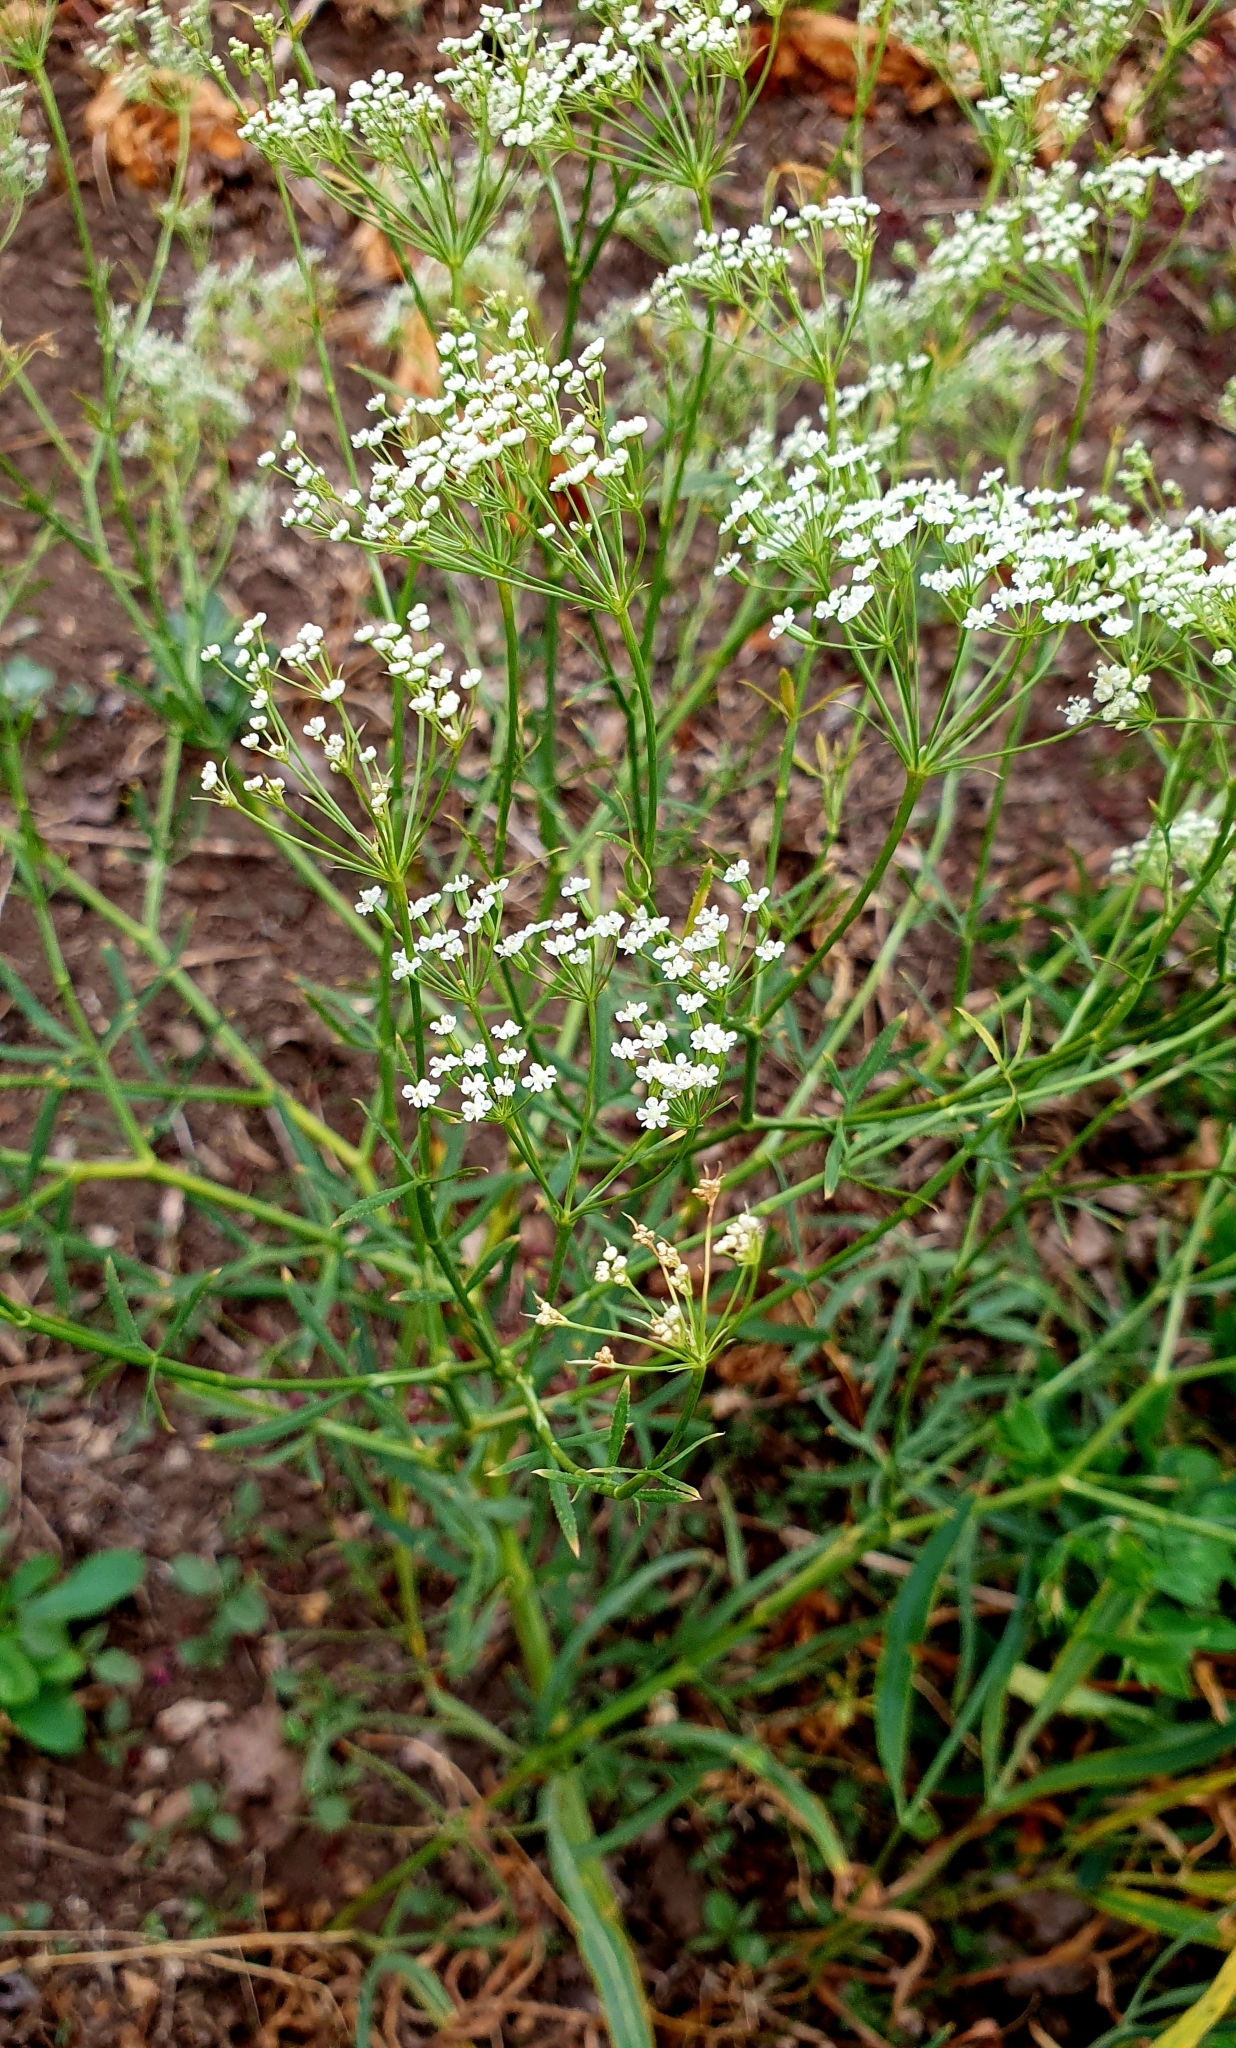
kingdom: Plantae
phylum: Tracheophyta
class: Magnoliopsida
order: Apiales
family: Apiaceae
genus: Falcaria
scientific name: Falcaria vulgaris
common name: Longleaf
